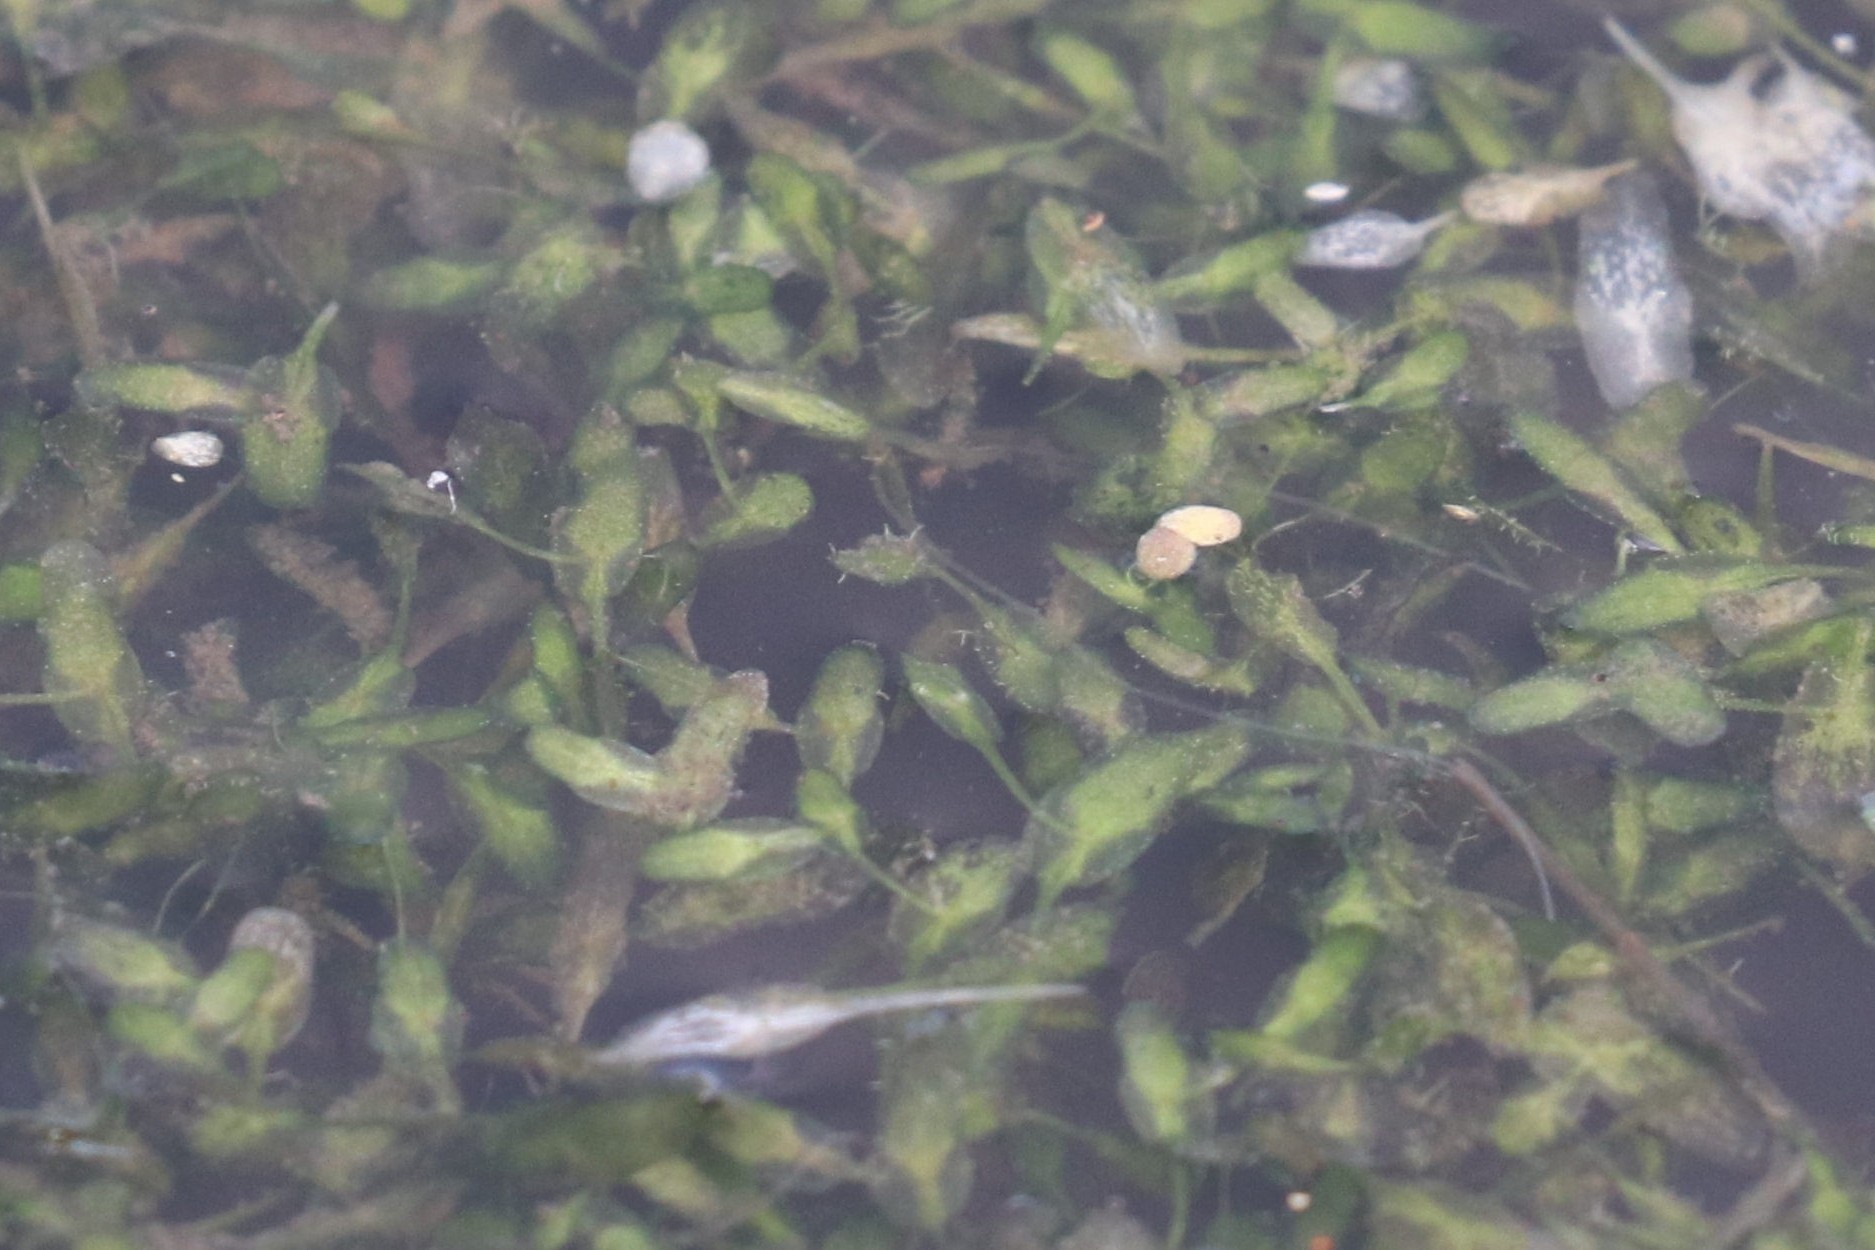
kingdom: Plantae
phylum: Tracheophyta
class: Liliopsida
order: Alismatales
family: Araceae
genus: Lemna
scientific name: Lemna trisulca
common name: Ivy-leaved duckweed
